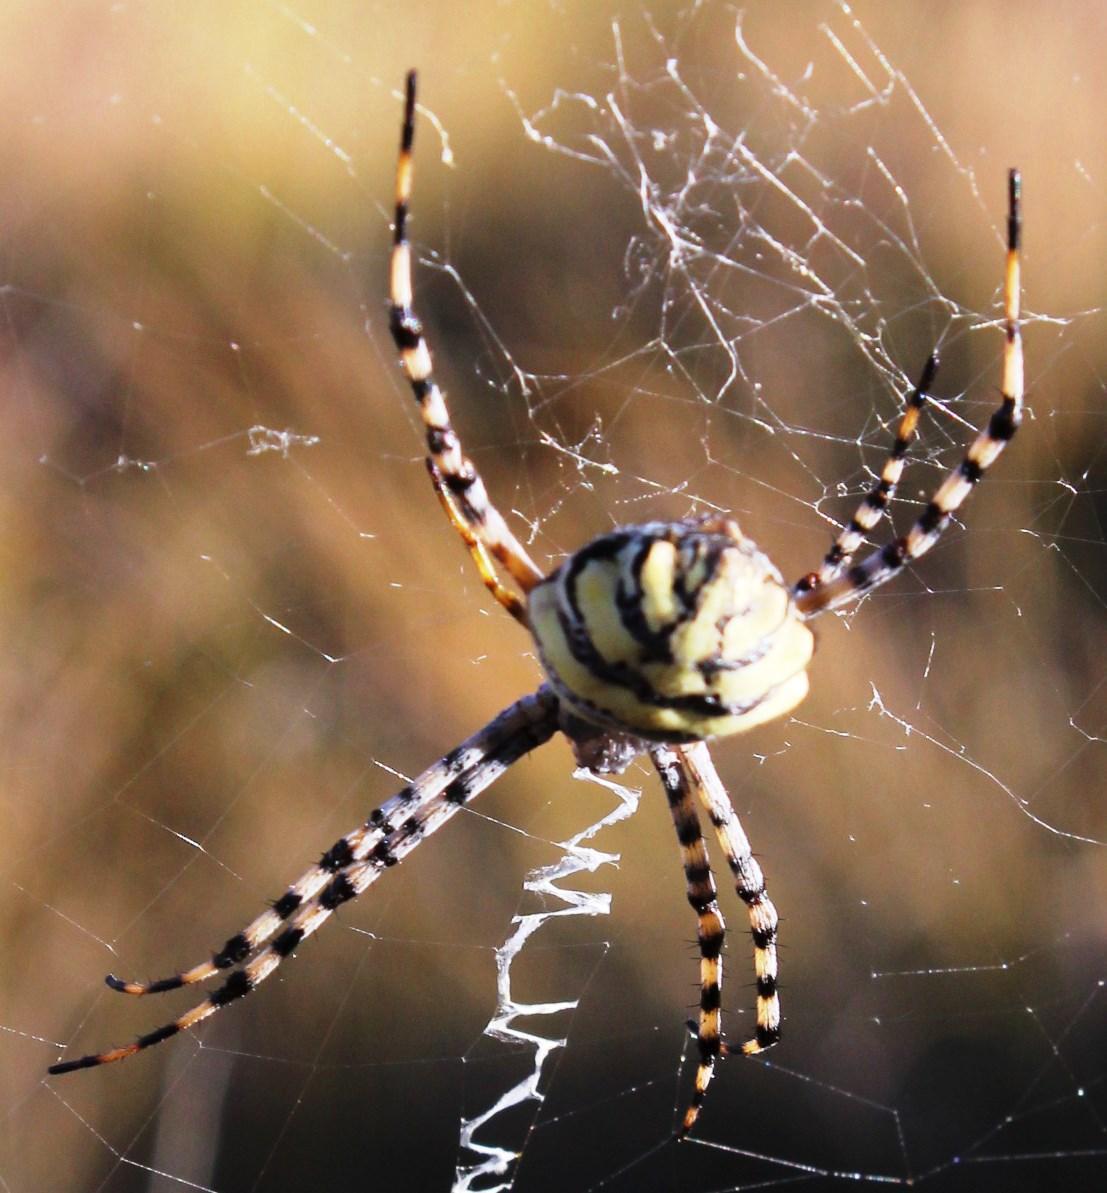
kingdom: Animalia
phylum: Arthropoda
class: Arachnida
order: Araneae
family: Araneidae
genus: Argiope
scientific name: Argiope australis
